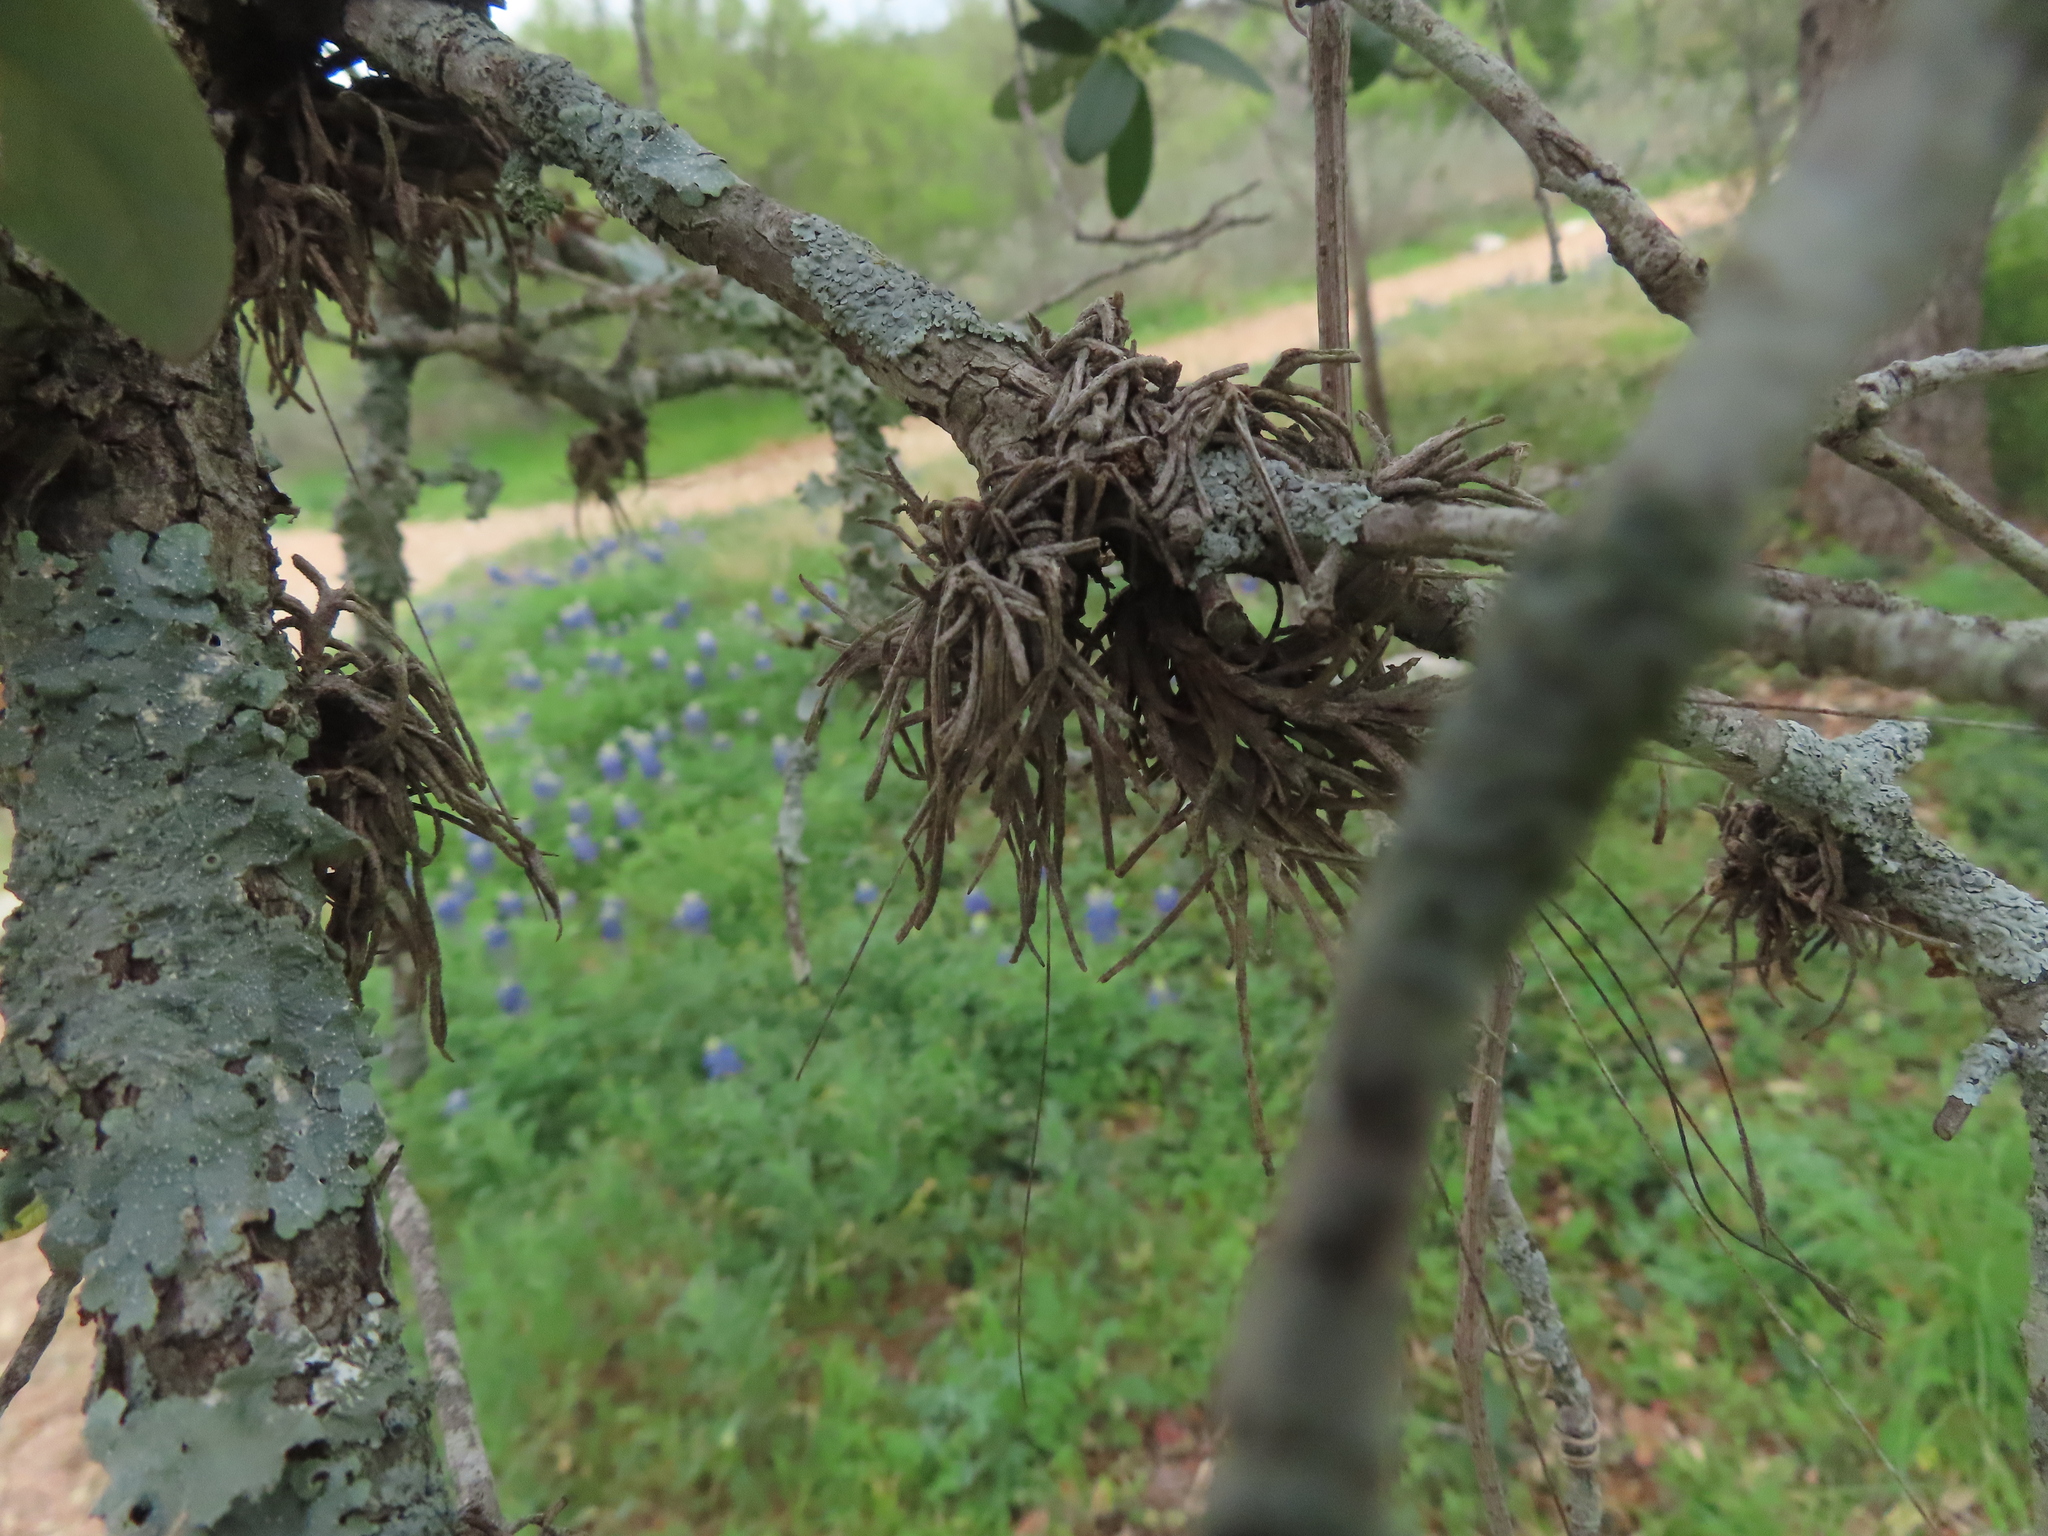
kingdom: Plantae
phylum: Tracheophyta
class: Liliopsida
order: Poales
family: Bromeliaceae
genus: Tillandsia
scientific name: Tillandsia recurvata
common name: Small ballmoss
